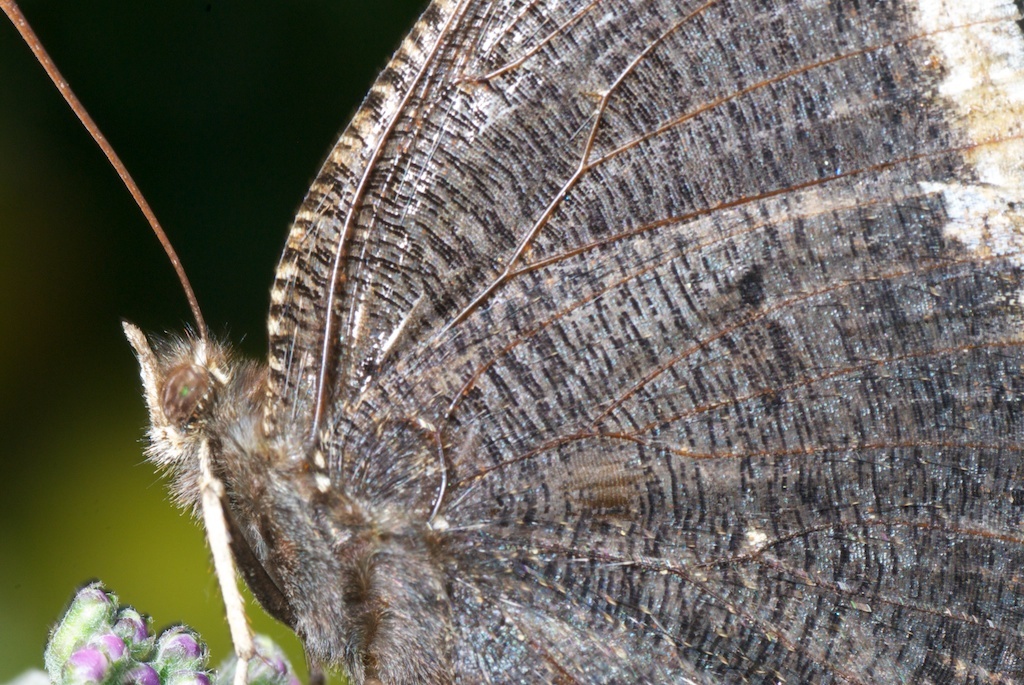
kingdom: Animalia
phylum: Arthropoda
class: Insecta
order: Lepidoptera
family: Nymphalidae
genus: Nymphalis
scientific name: Nymphalis antiopa
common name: Camberwell beauty
